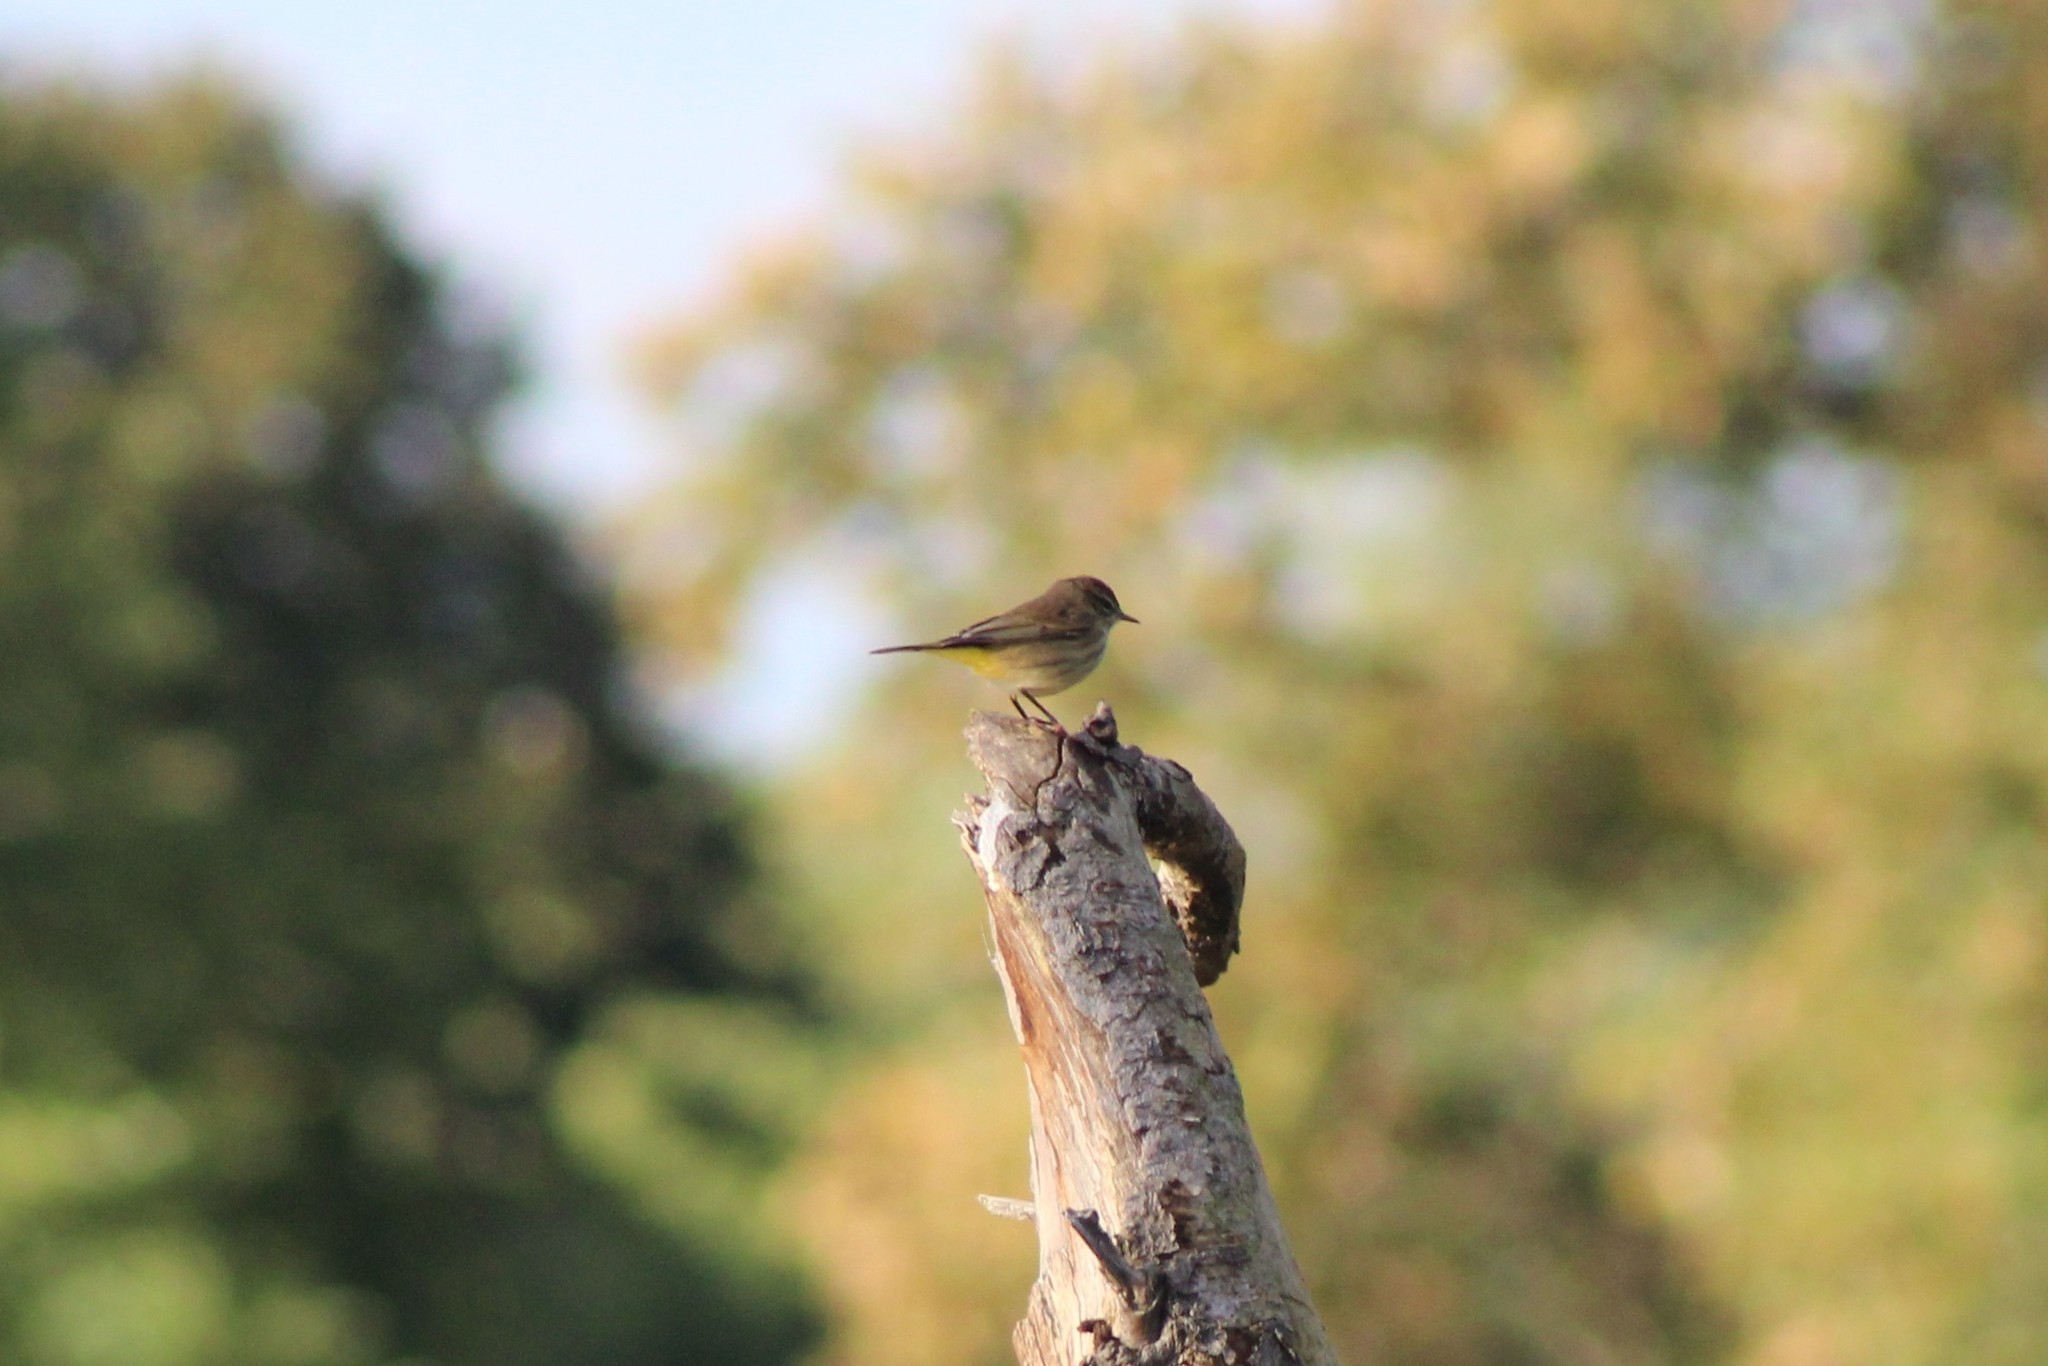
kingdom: Animalia
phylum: Chordata
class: Aves
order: Passeriformes
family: Parulidae
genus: Setophaga
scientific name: Setophaga palmarum
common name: Palm warbler
